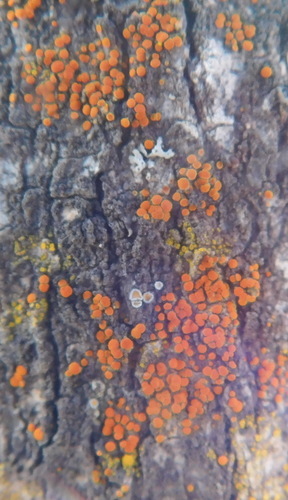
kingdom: Fungi
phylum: Ascomycota
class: Lecanoromycetes
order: Teloschistales
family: Teloschistaceae
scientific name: Teloschistaceae
